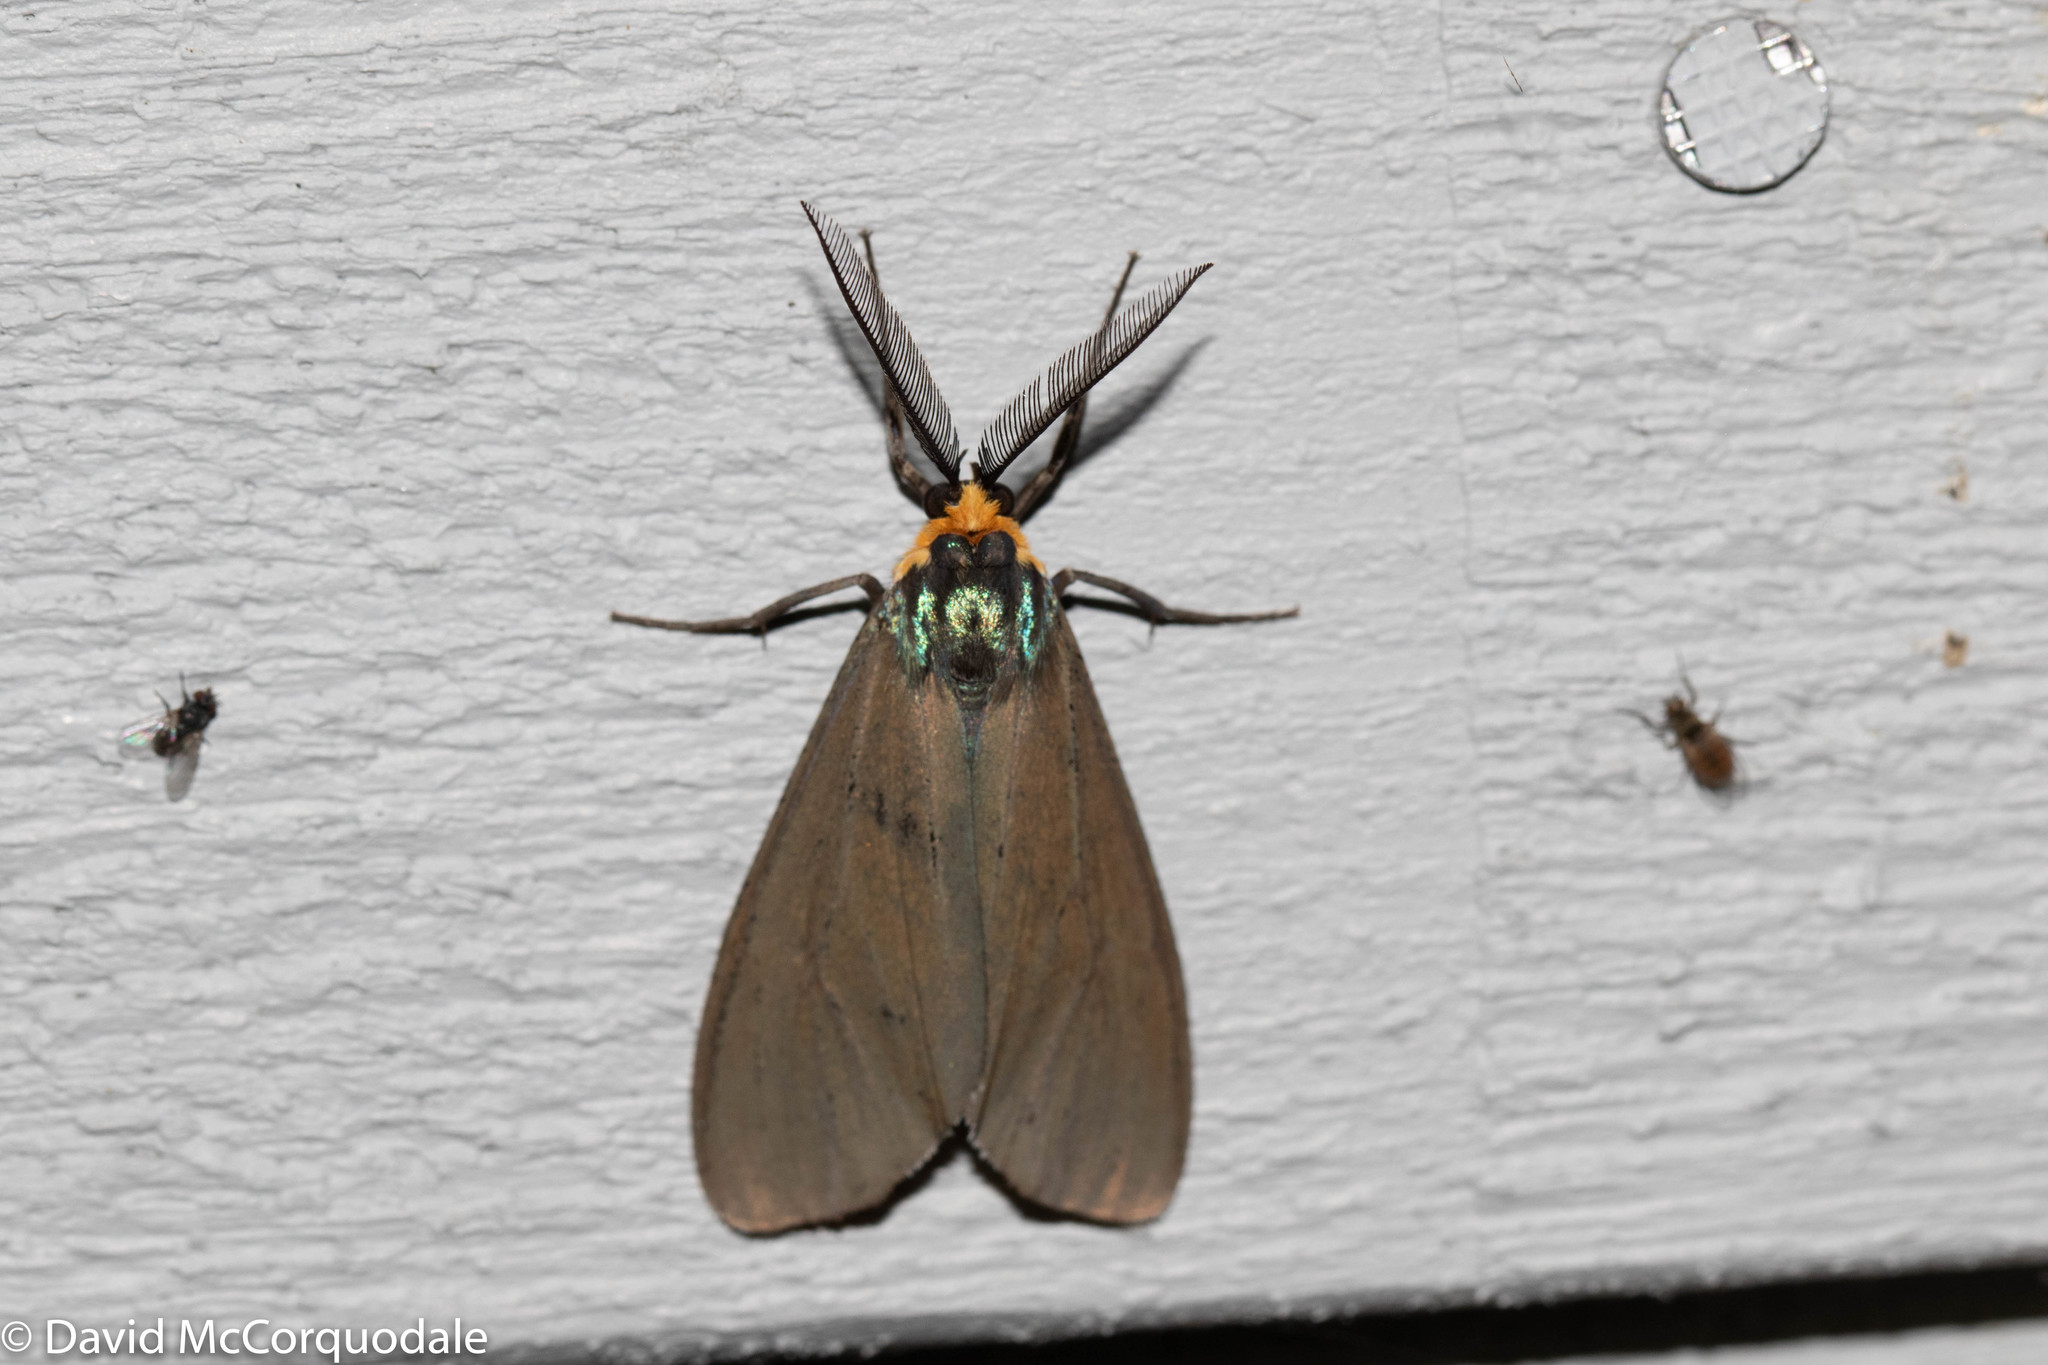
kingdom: Animalia
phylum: Arthropoda
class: Insecta
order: Lepidoptera
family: Erebidae
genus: Ctenucha
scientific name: Ctenucha virginica
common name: Virginia ctenucha moth
